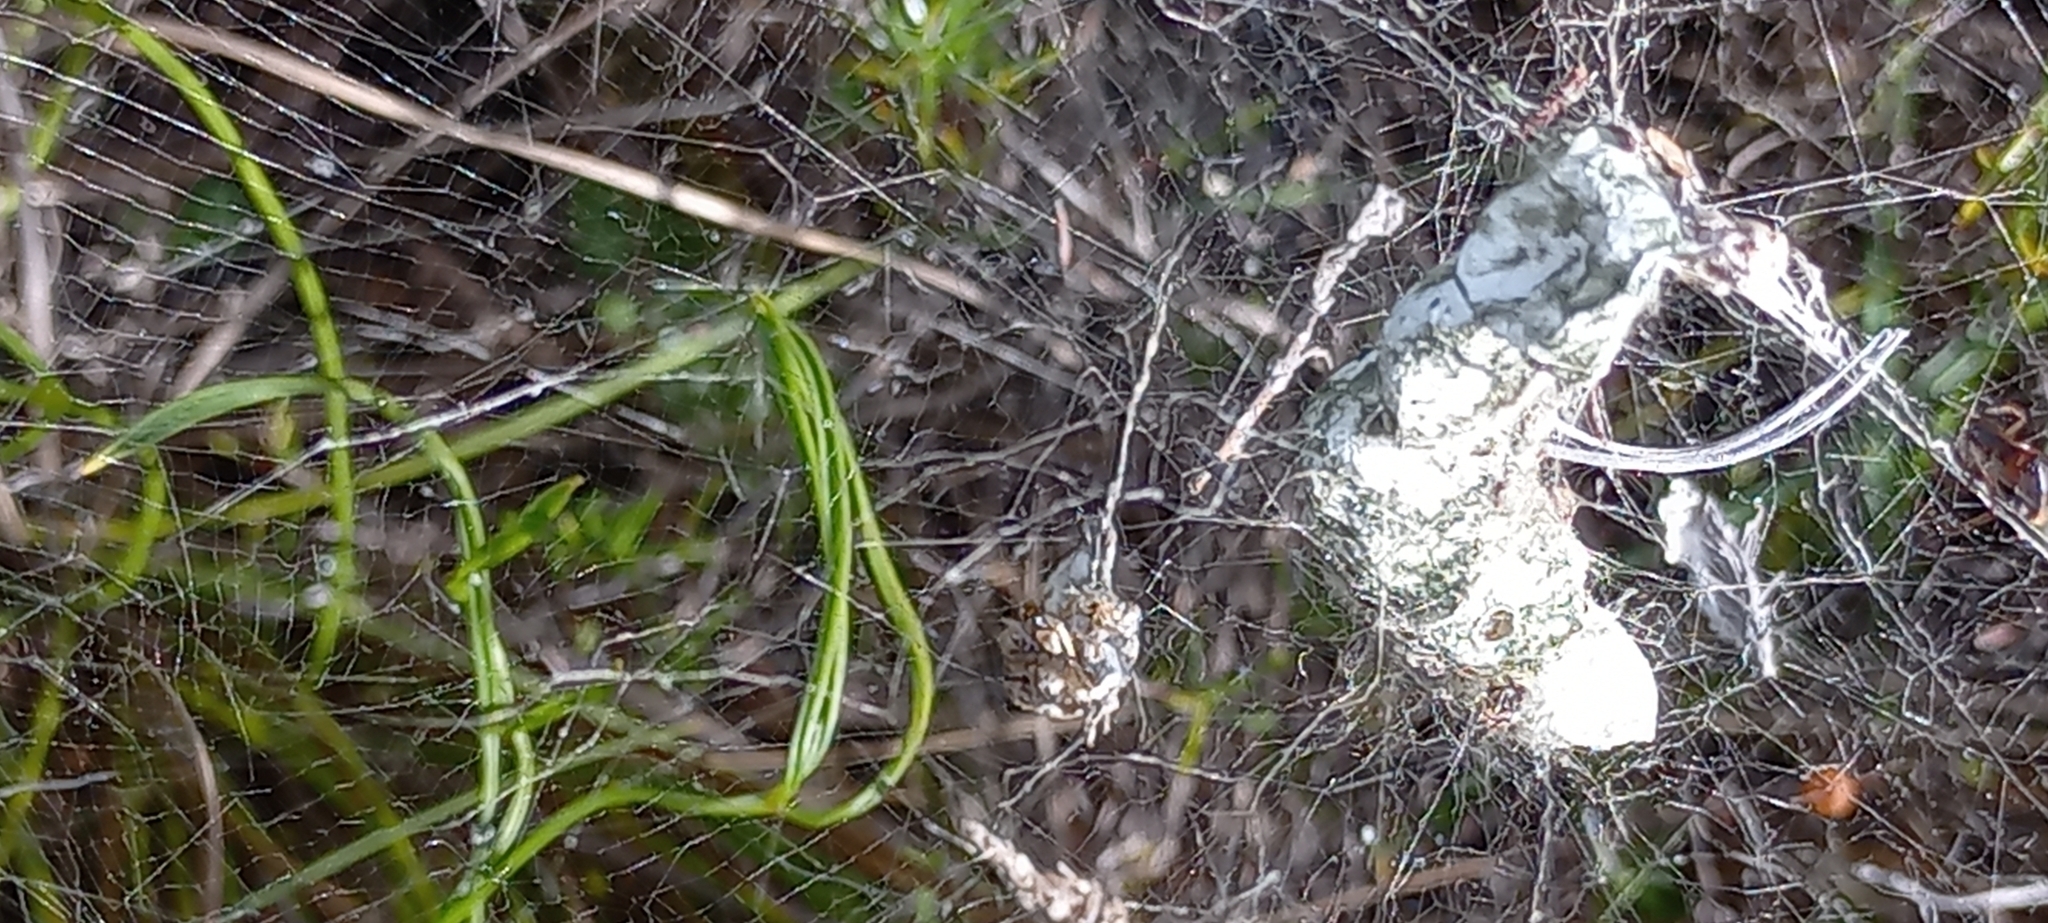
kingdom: Animalia
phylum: Arthropoda
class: Arachnida
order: Araneae
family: Araneidae
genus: Cyrtophora
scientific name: Cyrtophora citricola
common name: Orb weavers
